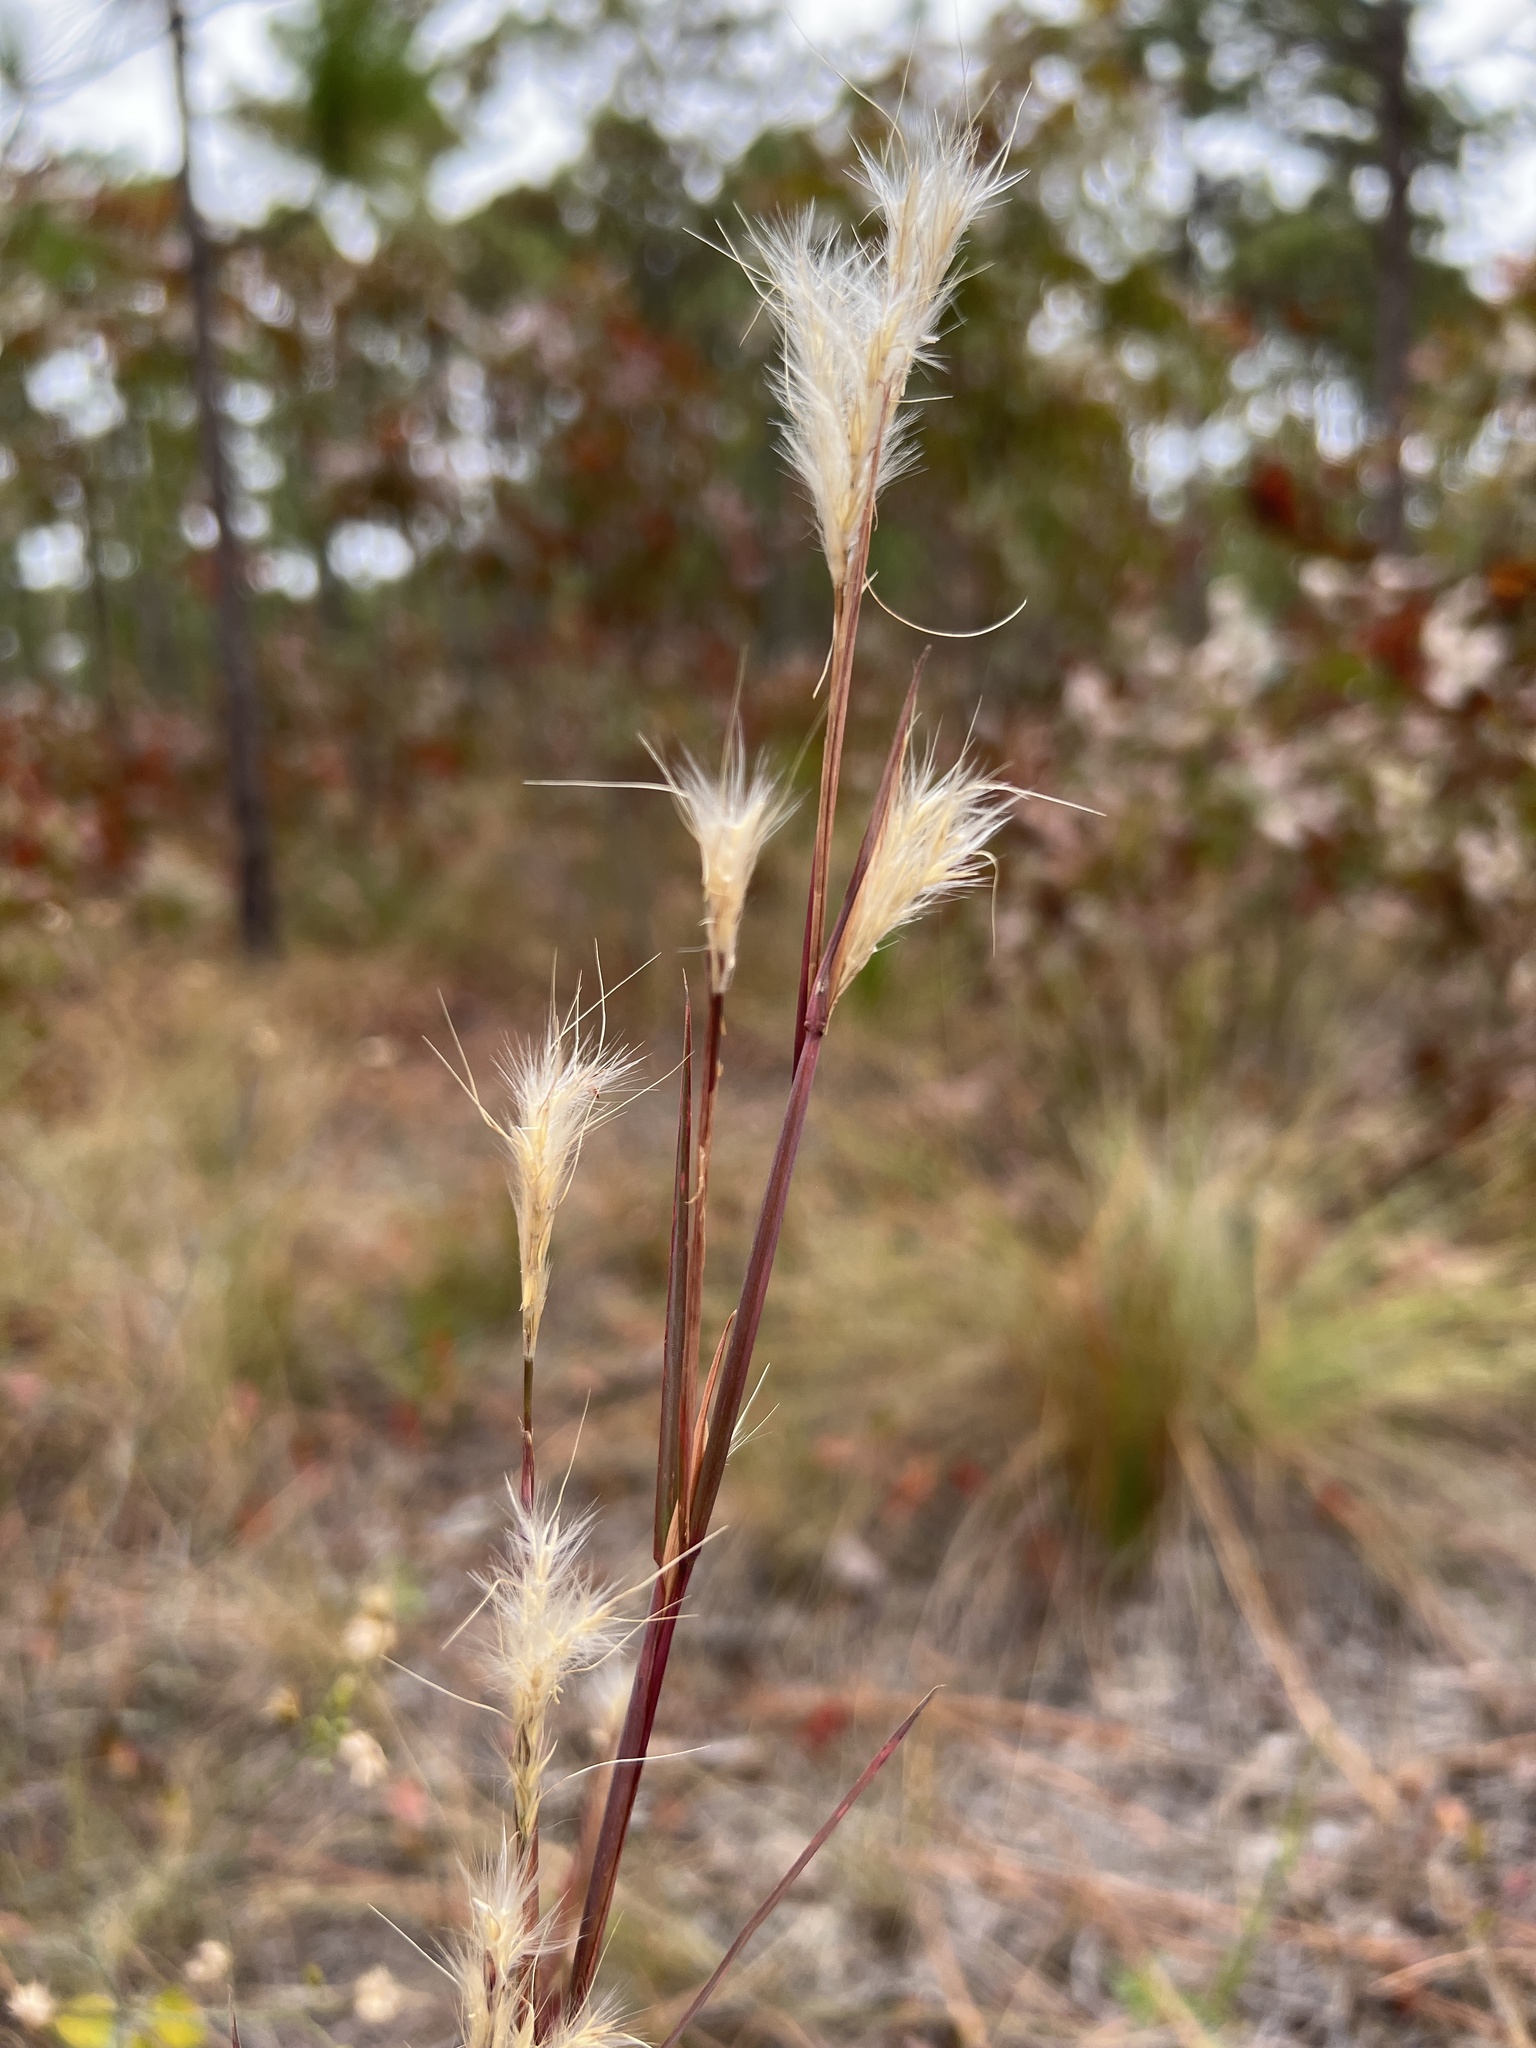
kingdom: Plantae
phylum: Tracheophyta
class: Liliopsida
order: Poales
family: Poaceae
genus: Andropogon
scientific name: Andropogon ternarius
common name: Split bluestem
